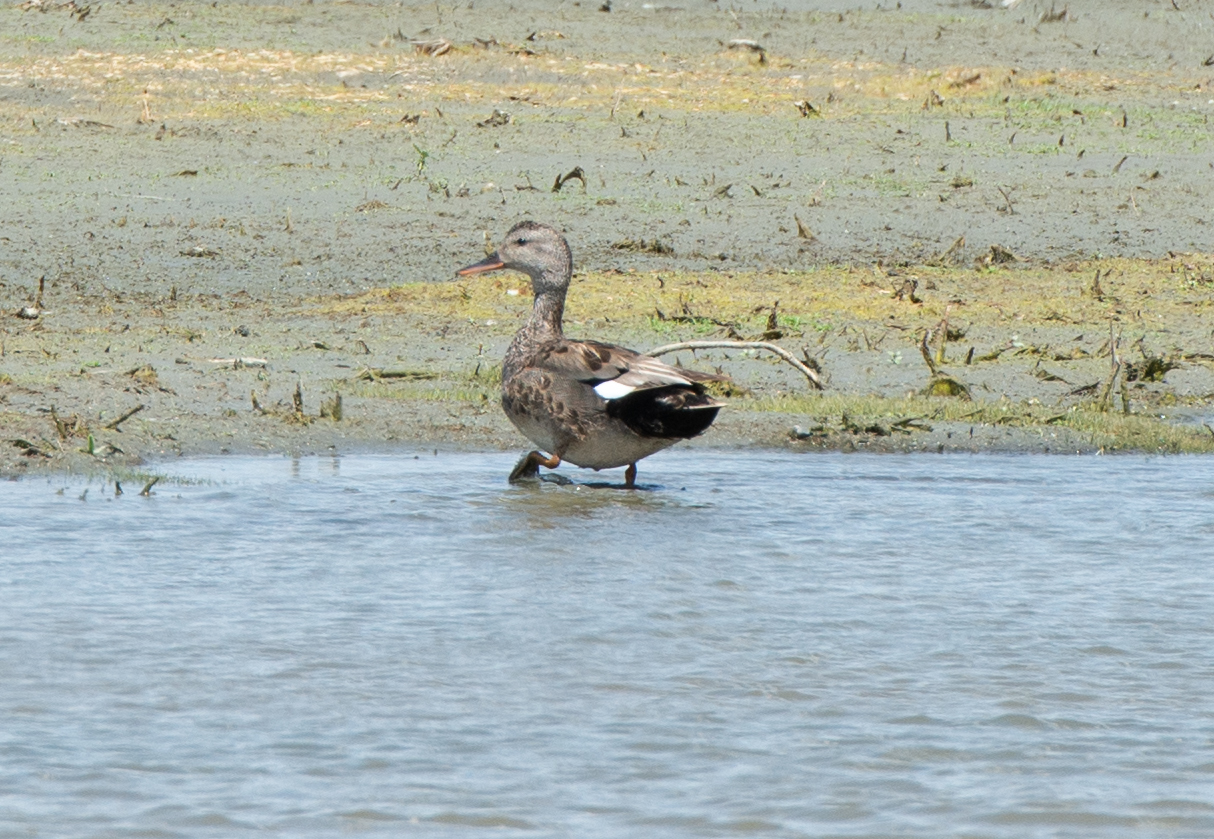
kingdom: Animalia
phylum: Chordata
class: Aves
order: Anseriformes
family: Anatidae
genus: Mareca
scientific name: Mareca strepera
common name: Gadwall
